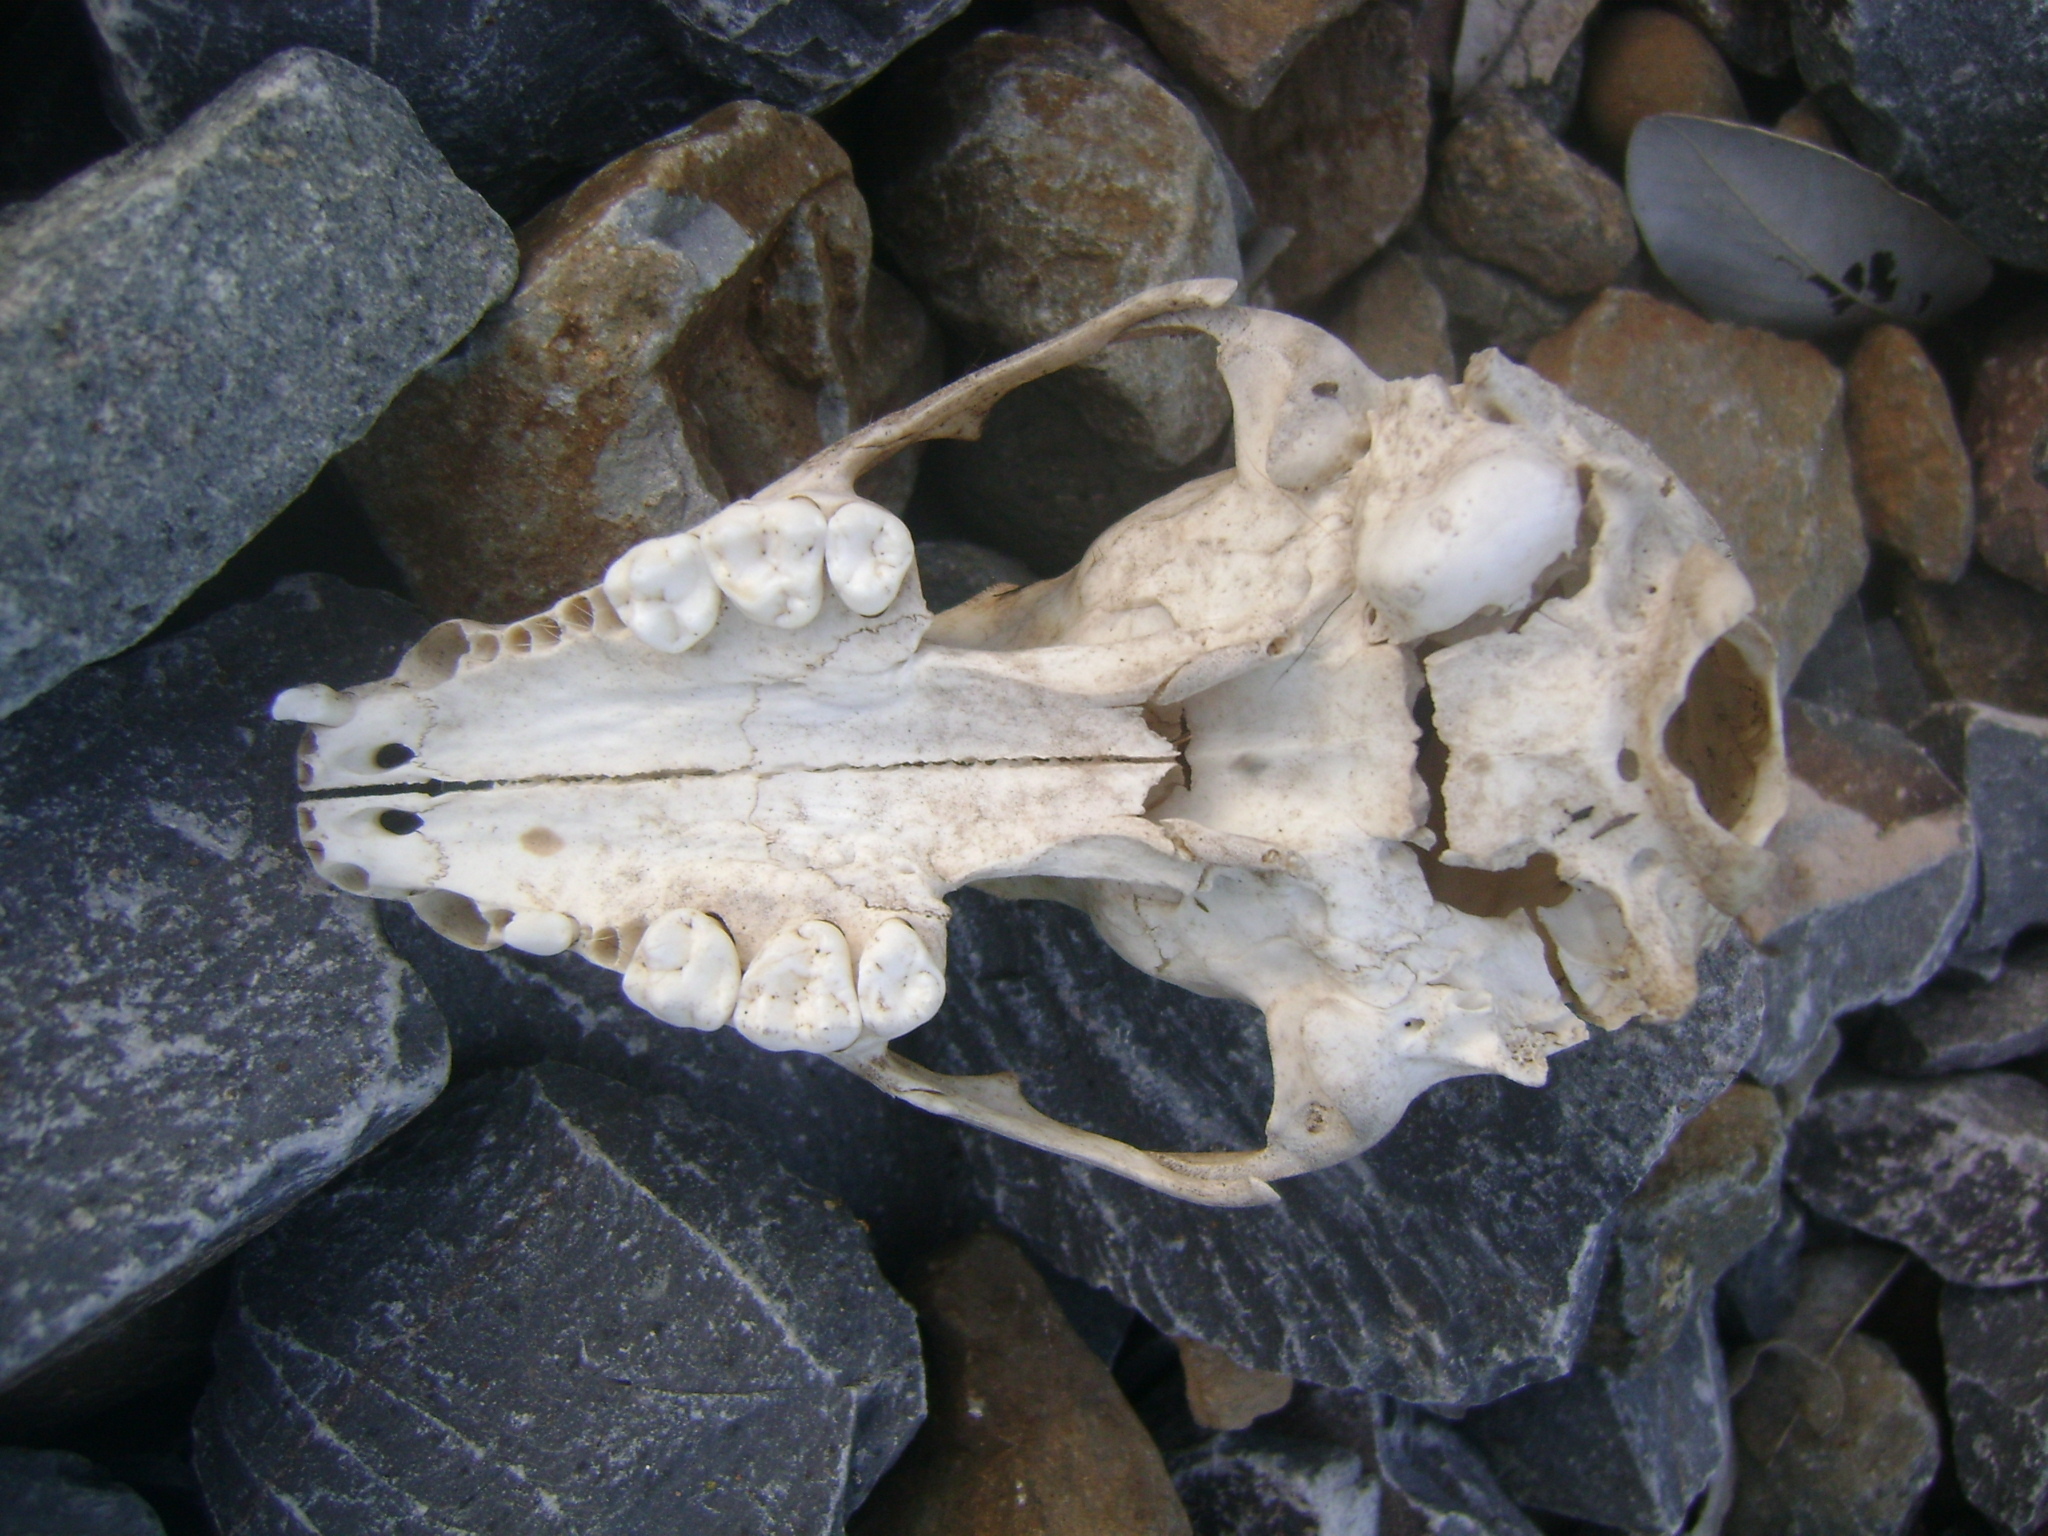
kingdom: Animalia
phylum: Chordata
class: Mammalia
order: Carnivora
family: Procyonidae
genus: Procyon
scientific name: Procyon lotor
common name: Raccoon
